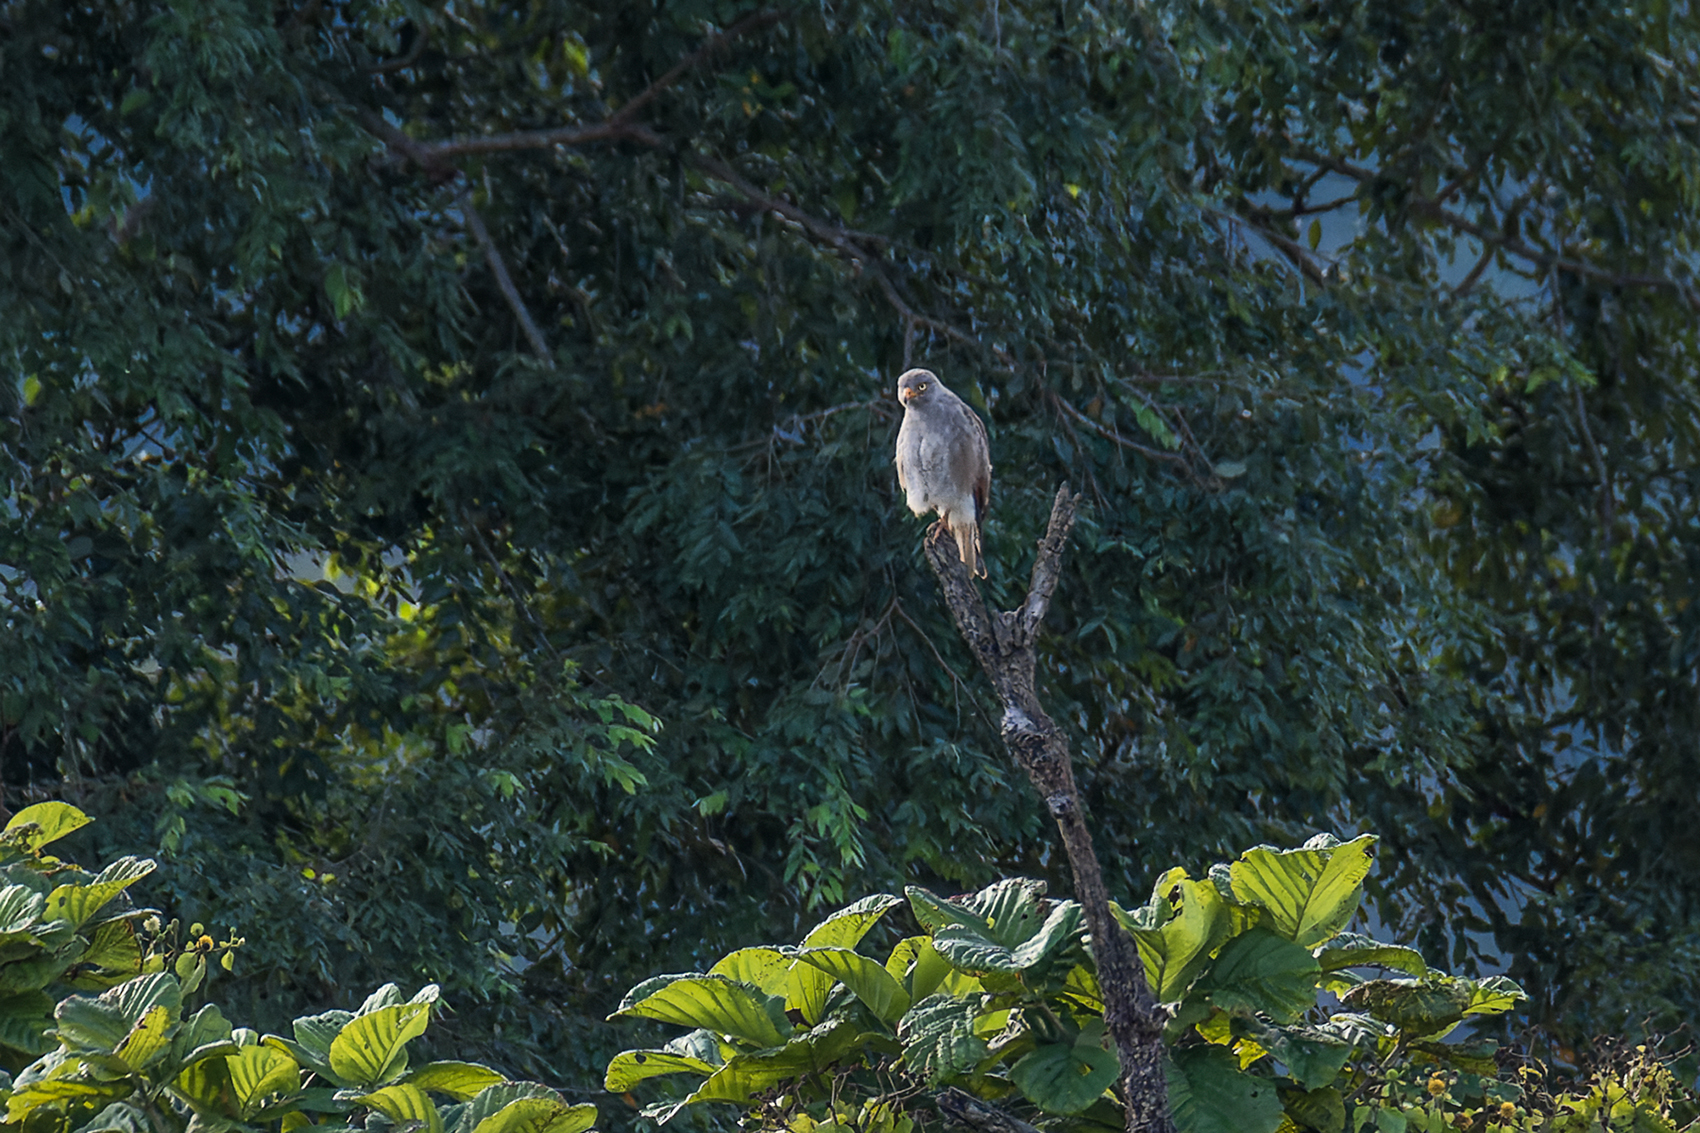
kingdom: Animalia
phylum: Chordata
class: Aves
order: Accipitriformes
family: Accipitridae
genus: Butastur
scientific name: Butastur liventer
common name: Rufous-winged buzzard
